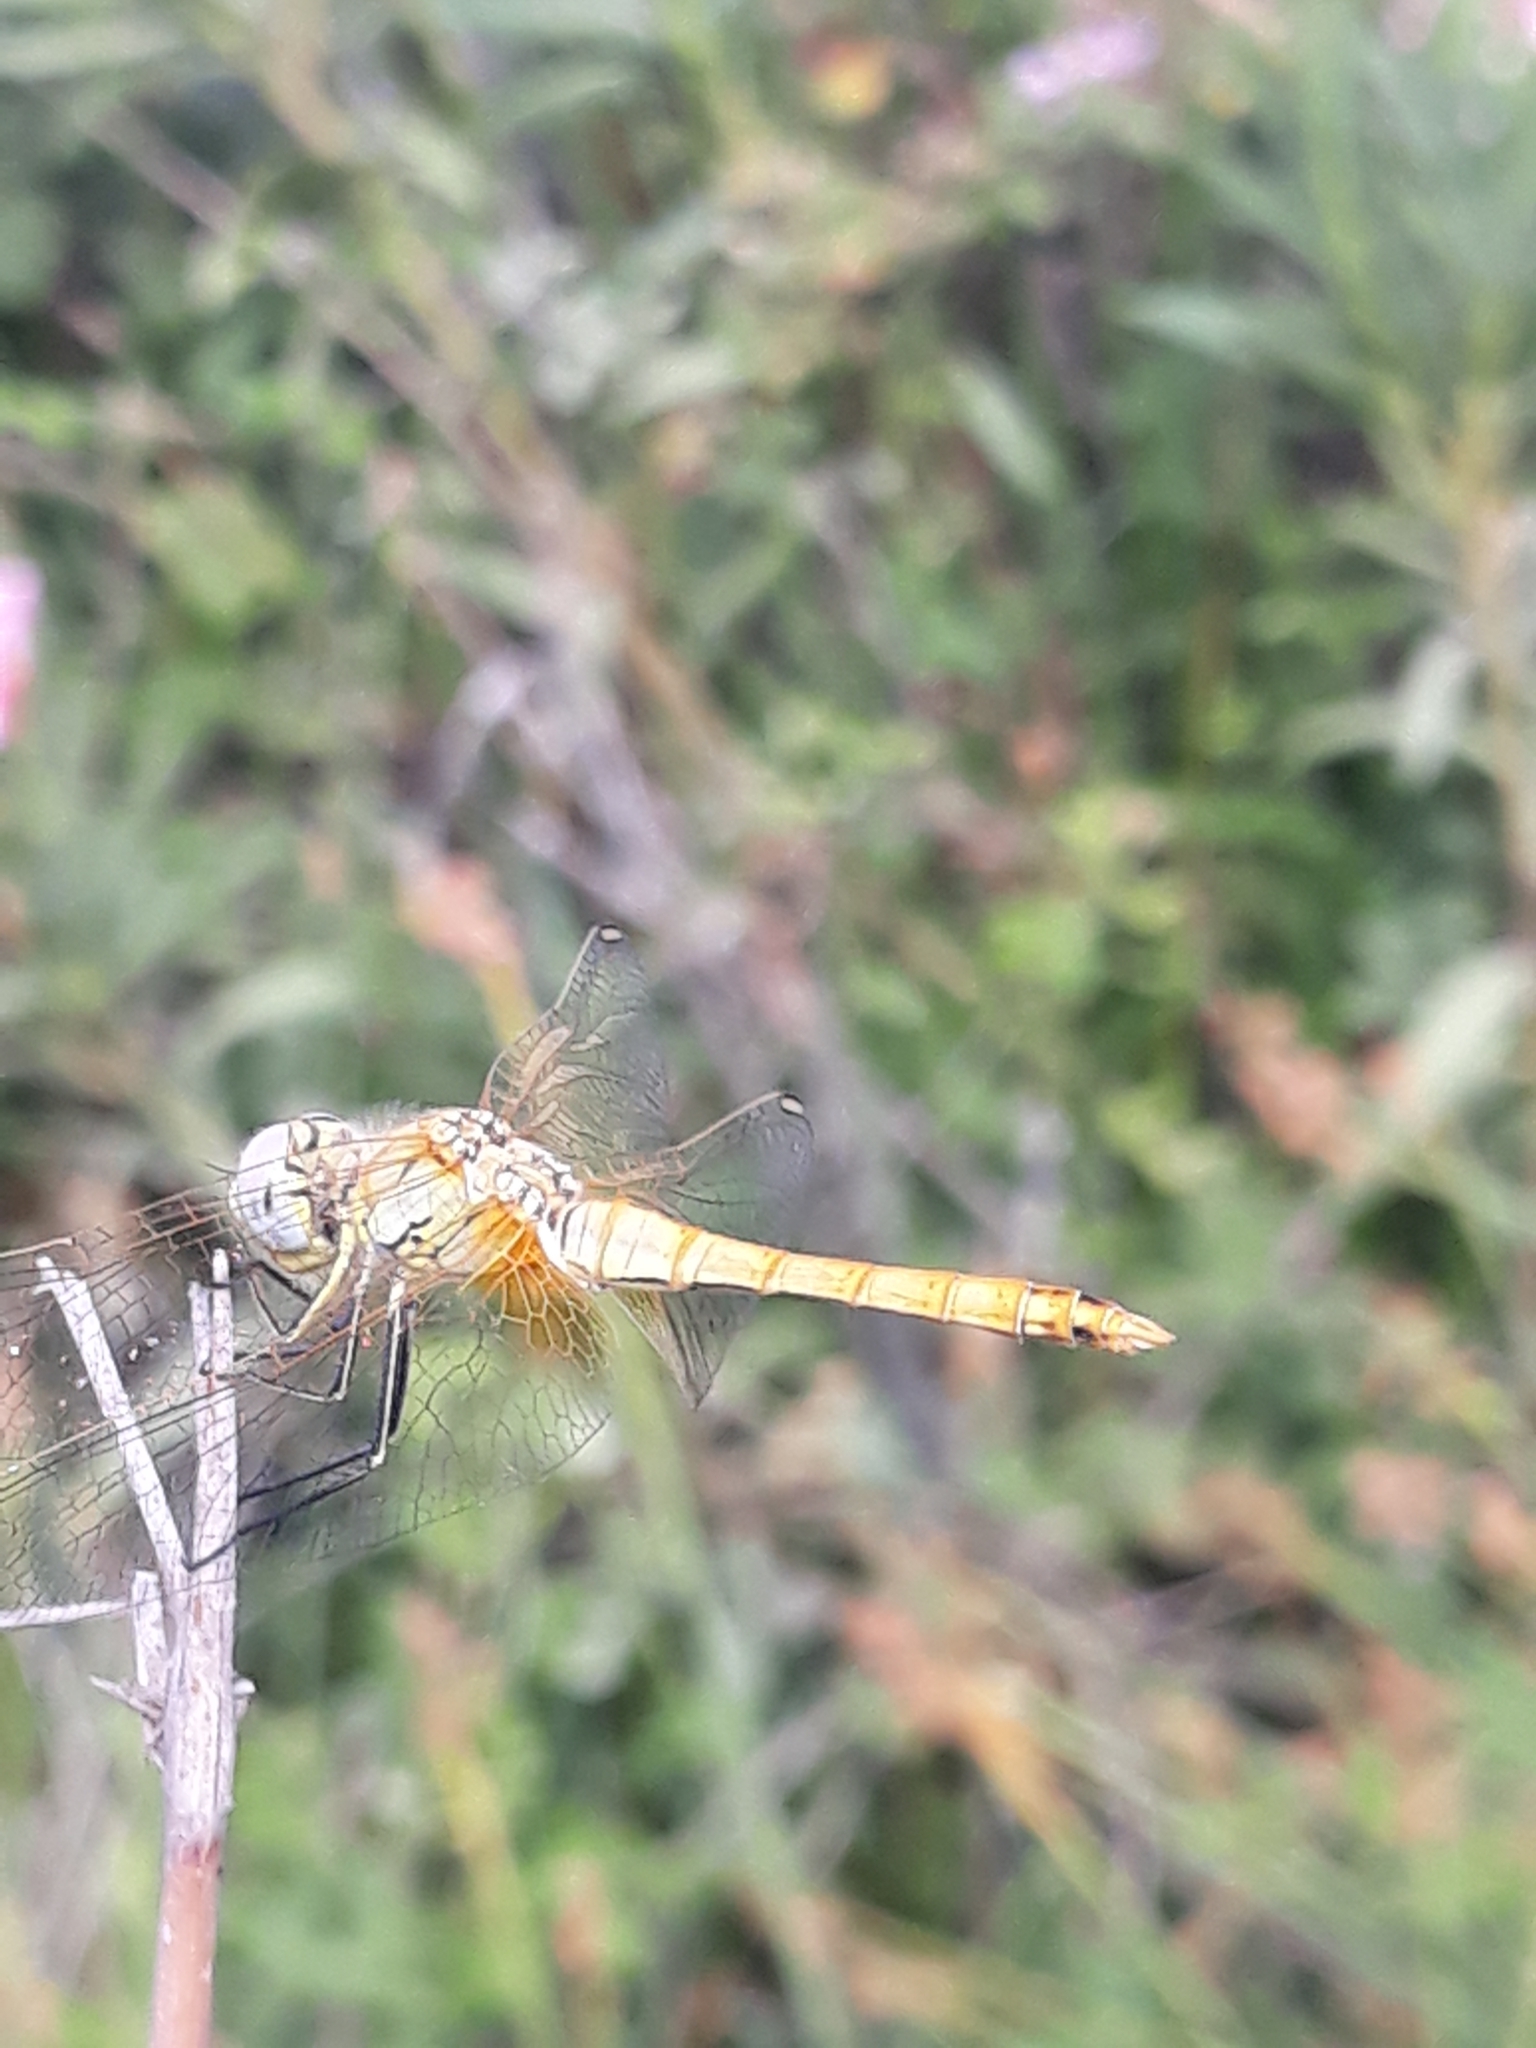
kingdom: Animalia
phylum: Arthropoda
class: Insecta
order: Odonata
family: Libellulidae
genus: Sympetrum
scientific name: Sympetrum fonscolombii
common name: Red-veined darter
